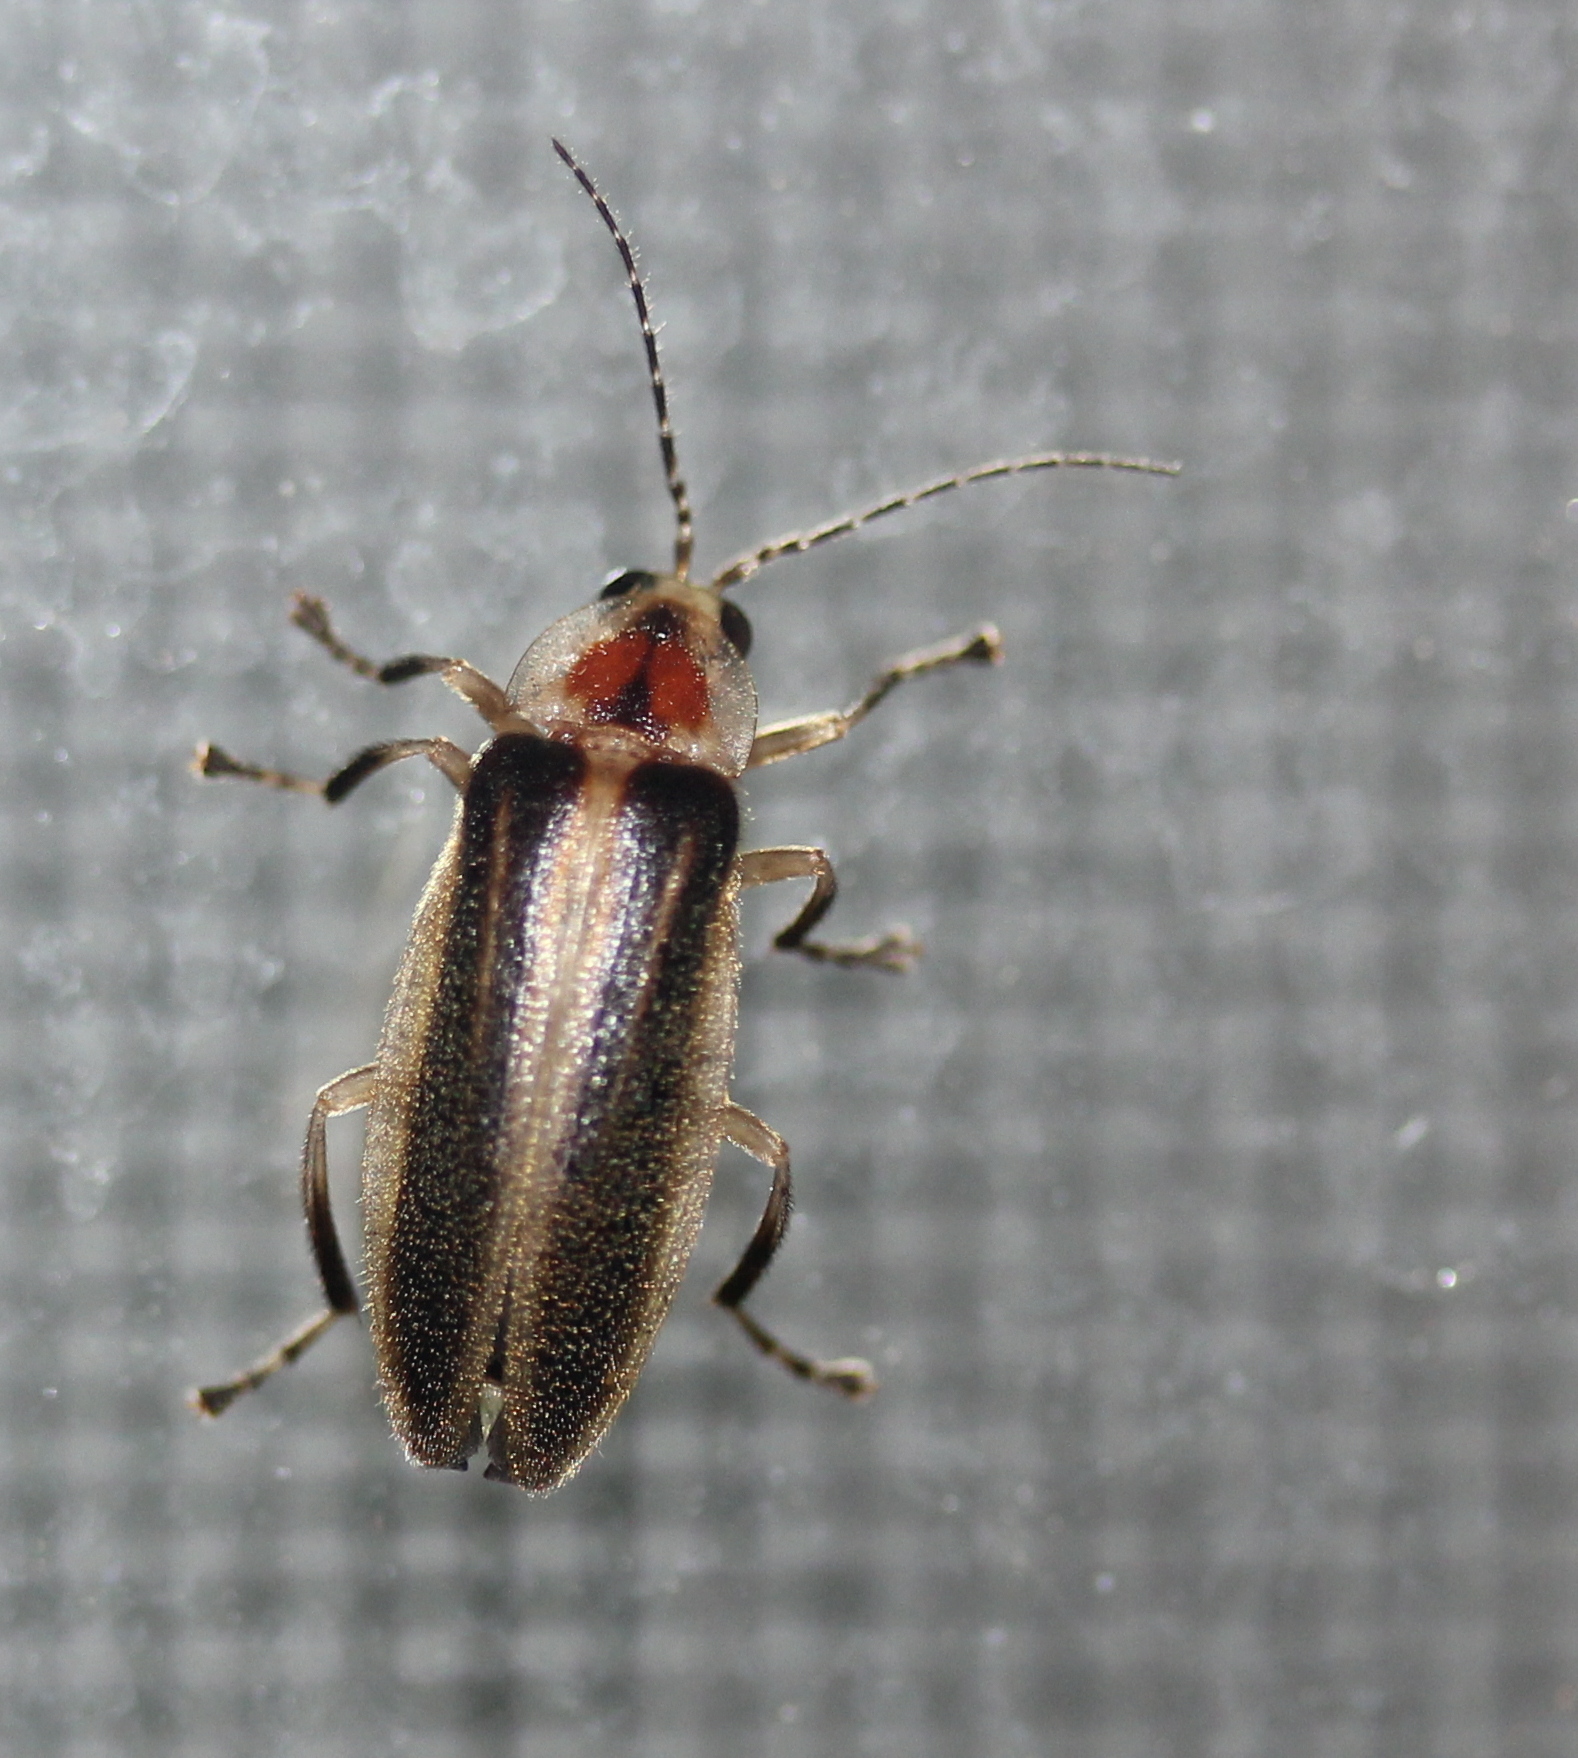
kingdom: Animalia
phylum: Arthropoda
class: Insecta
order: Coleoptera
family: Lampyridae
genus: Photuris
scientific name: Photuris
